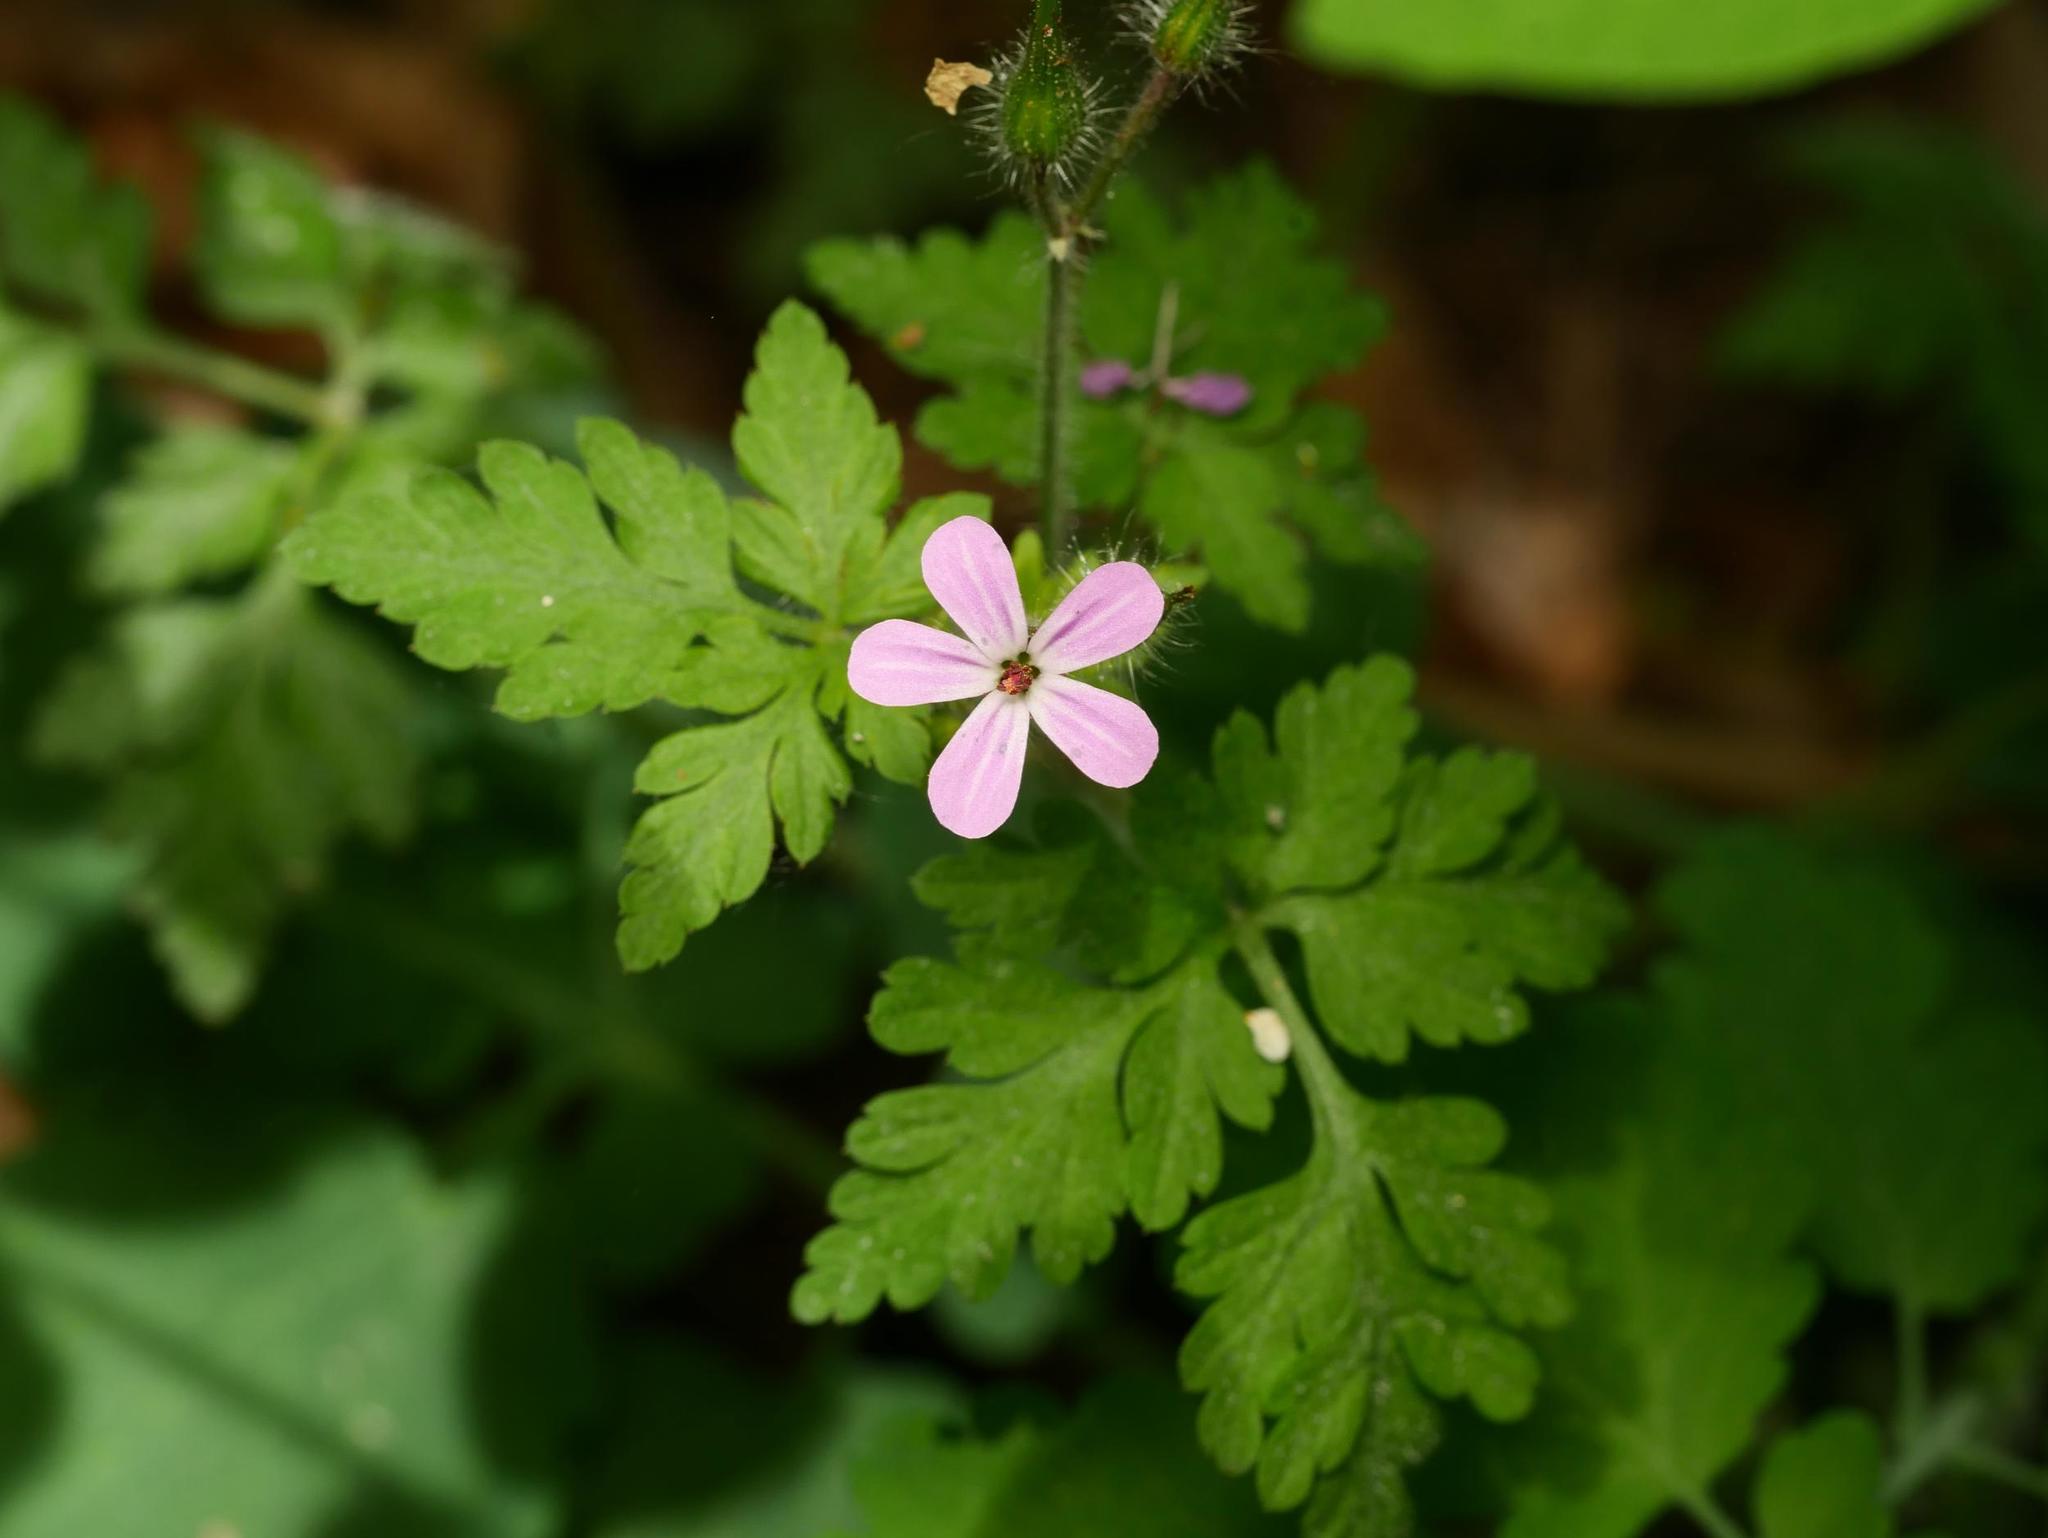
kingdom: Plantae
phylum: Tracheophyta
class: Magnoliopsida
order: Geraniales
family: Geraniaceae
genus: Geranium
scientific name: Geranium robertianum
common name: Herb-robert
